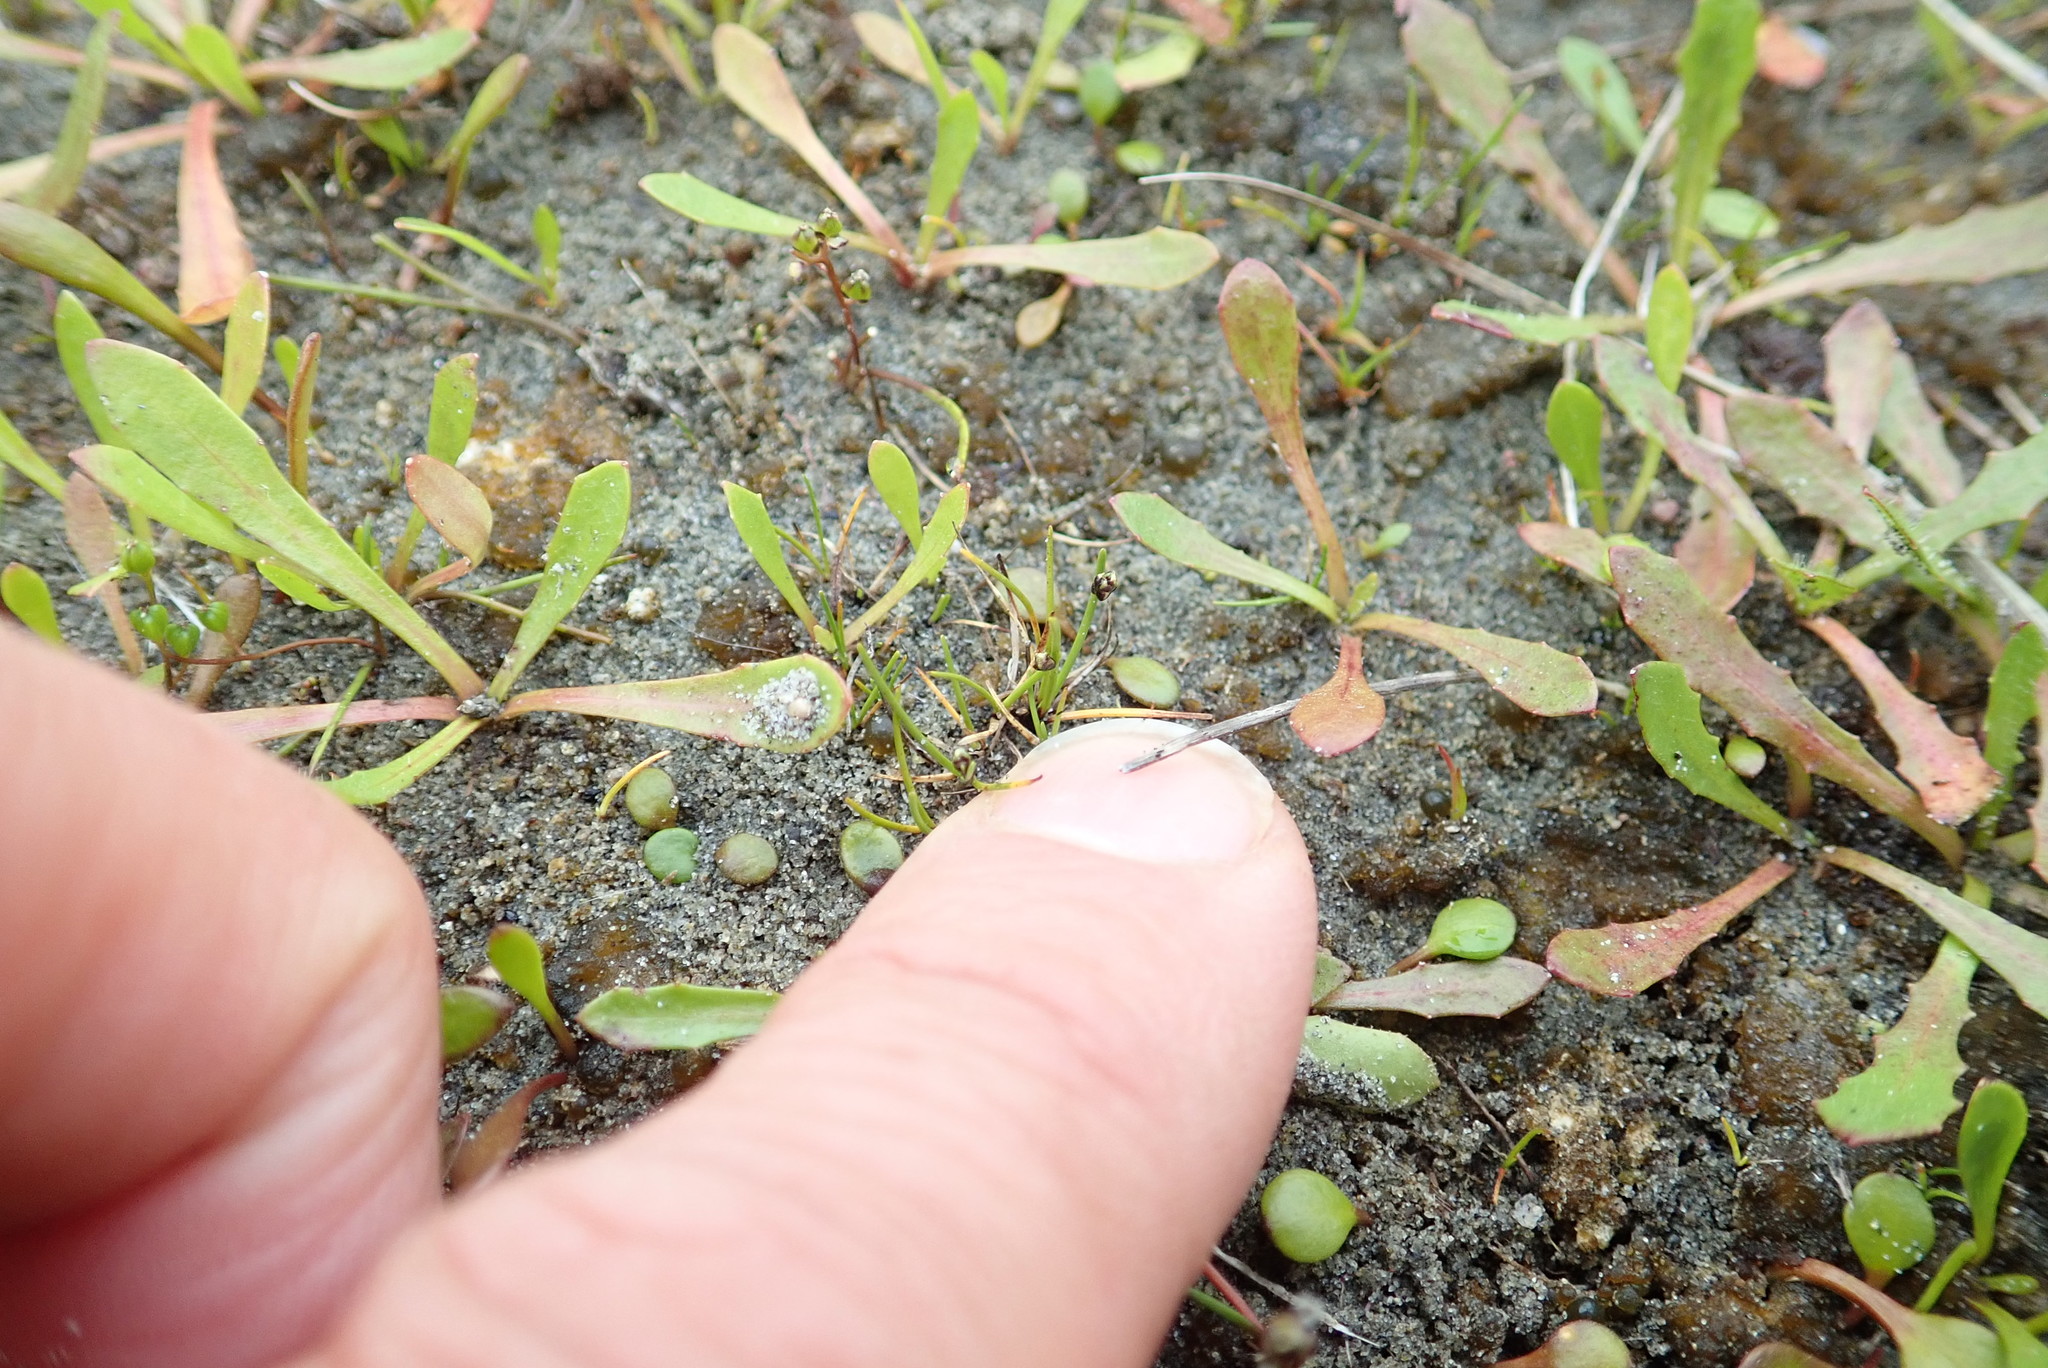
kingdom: Plantae
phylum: Tracheophyta
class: Liliopsida
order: Poales
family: Cyperaceae
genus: Isolepis
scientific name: Isolepis cernua
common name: Slender club-rush
